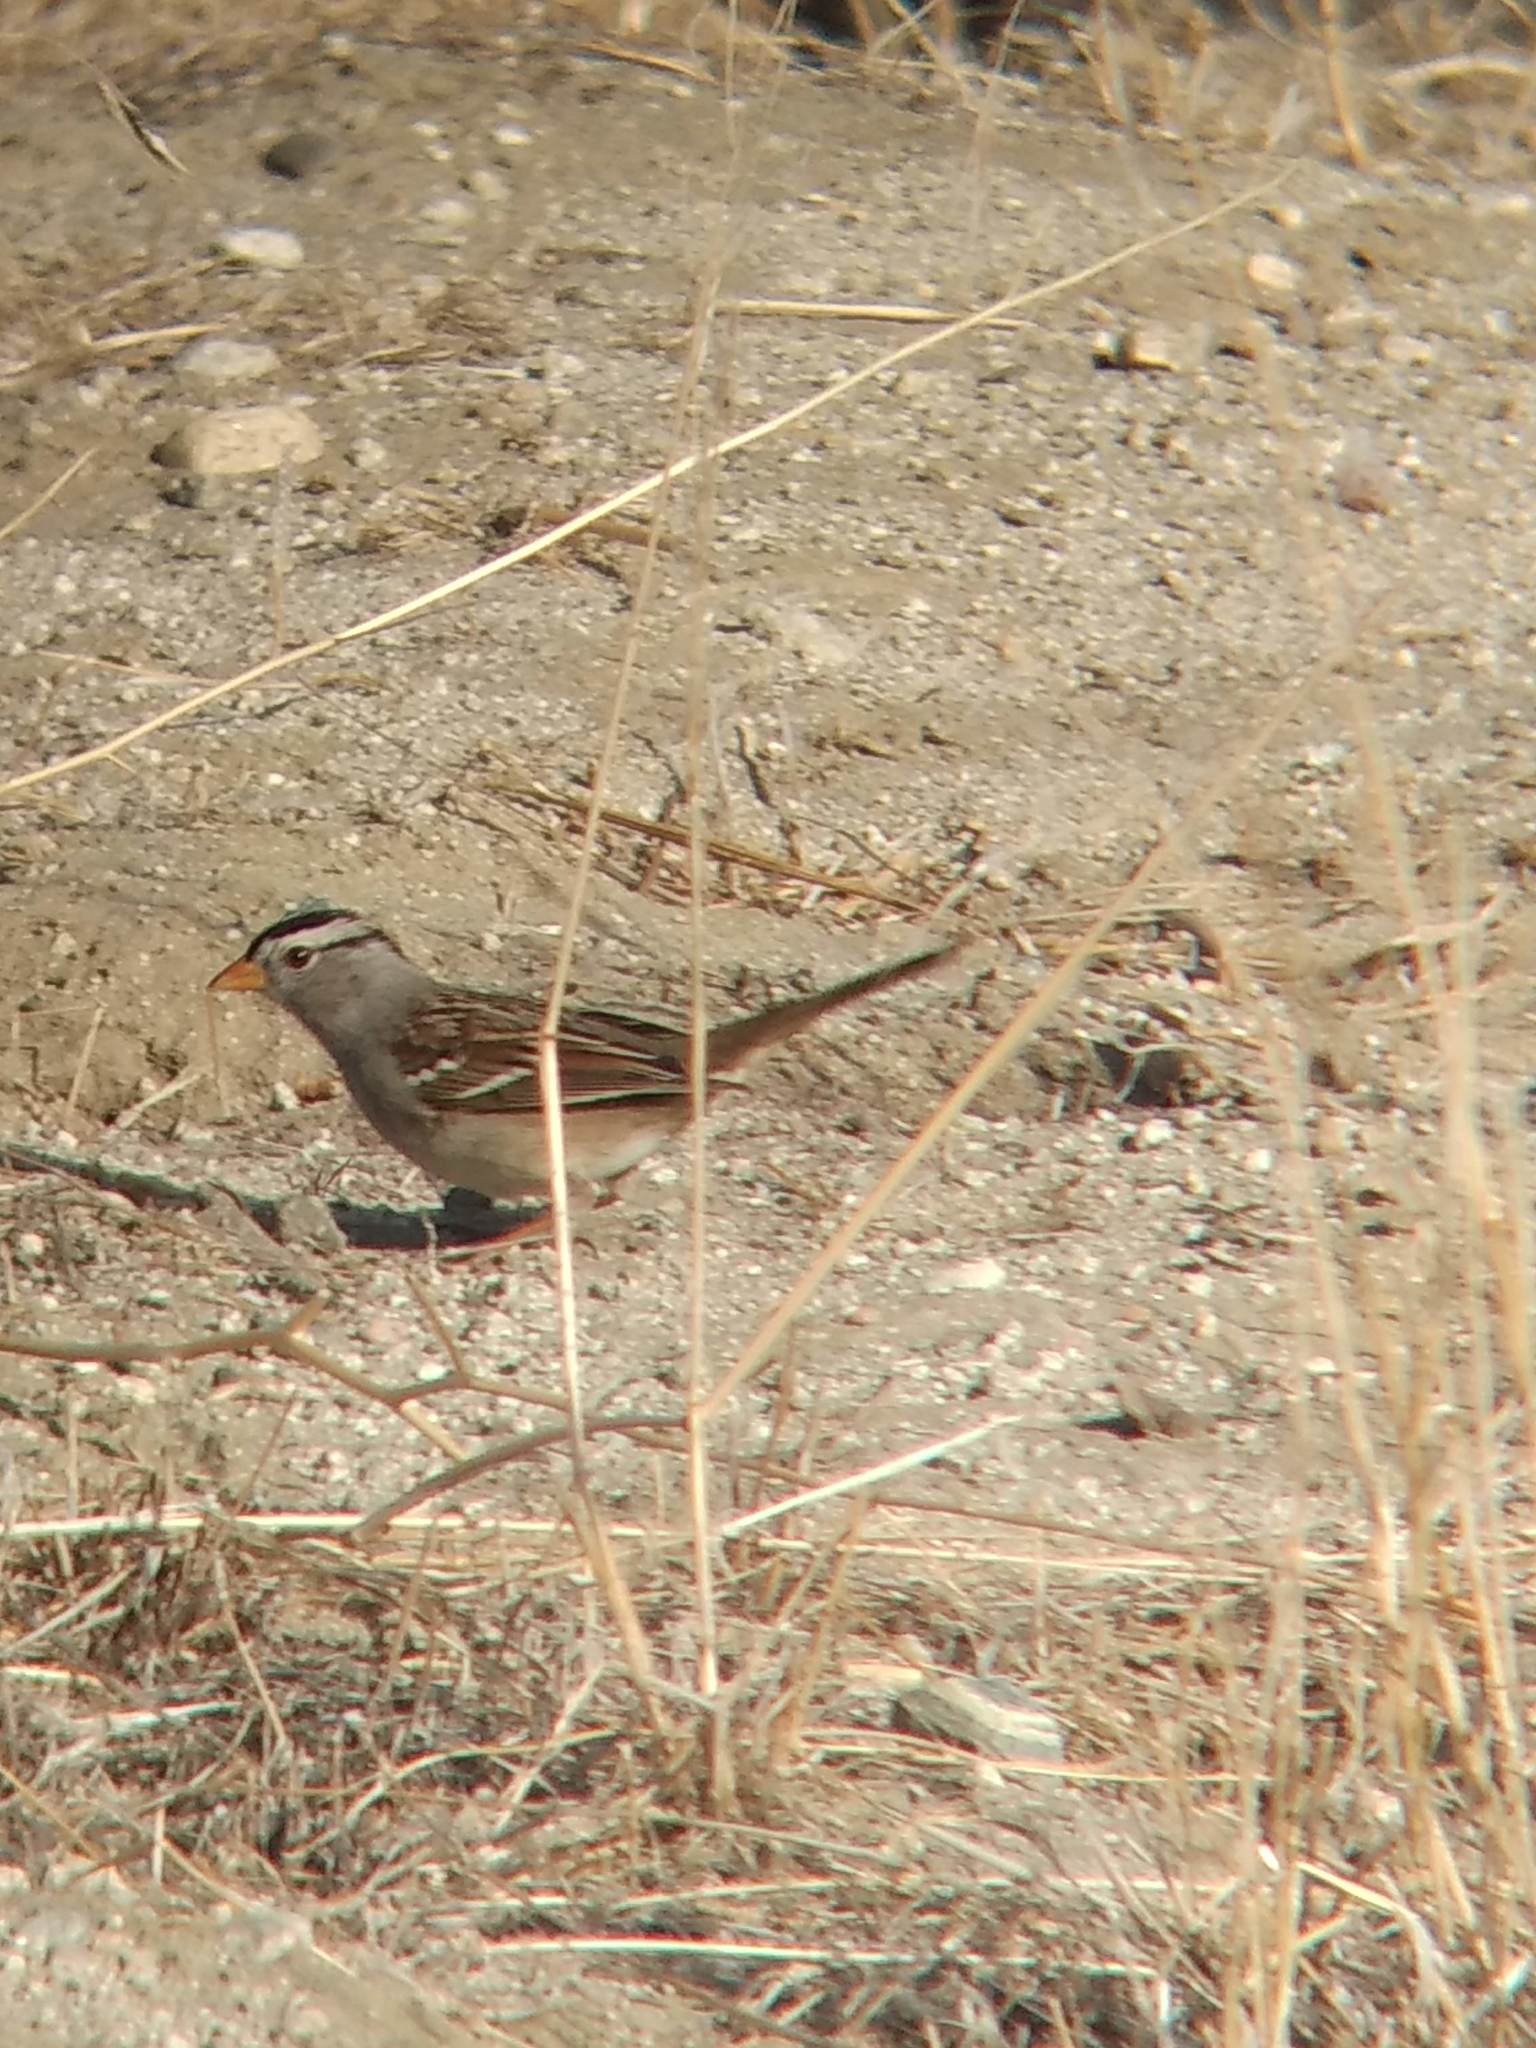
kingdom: Animalia
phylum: Chordata
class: Aves
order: Passeriformes
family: Passerellidae
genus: Zonotrichia
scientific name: Zonotrichia leucophrys
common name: White-crowned sparrow
